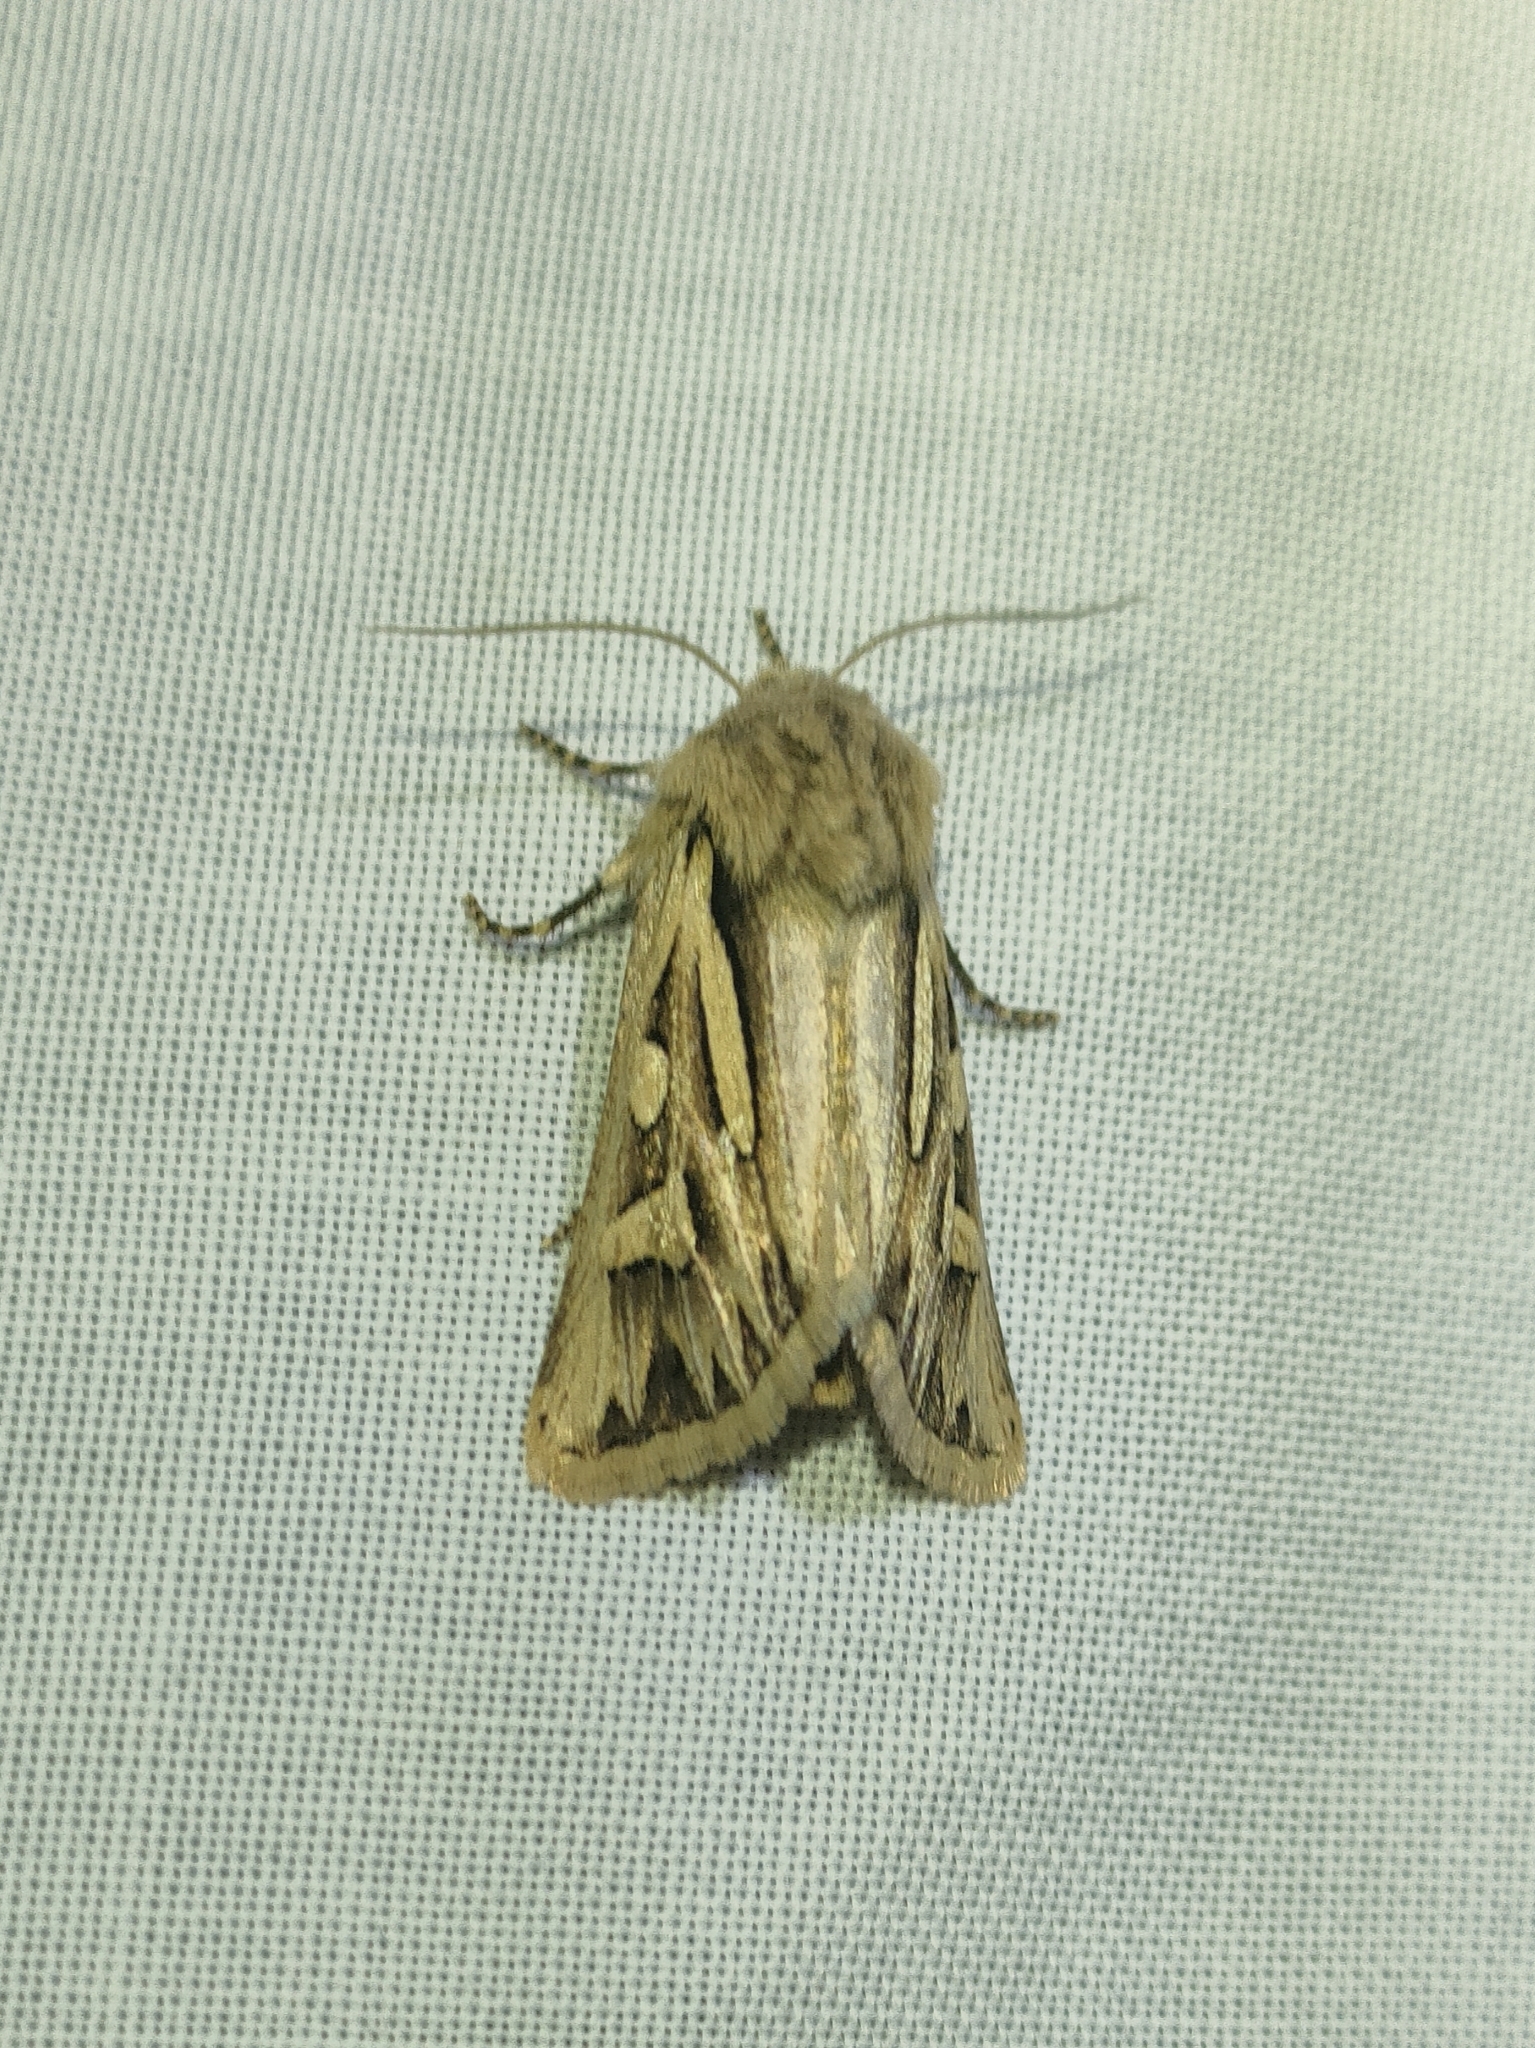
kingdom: Animalia
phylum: Arthropoda
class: Insecta
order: Lepidoptera
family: Noctuidae
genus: Eucoptocnemis
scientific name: Eucoptocnemis optabilis
